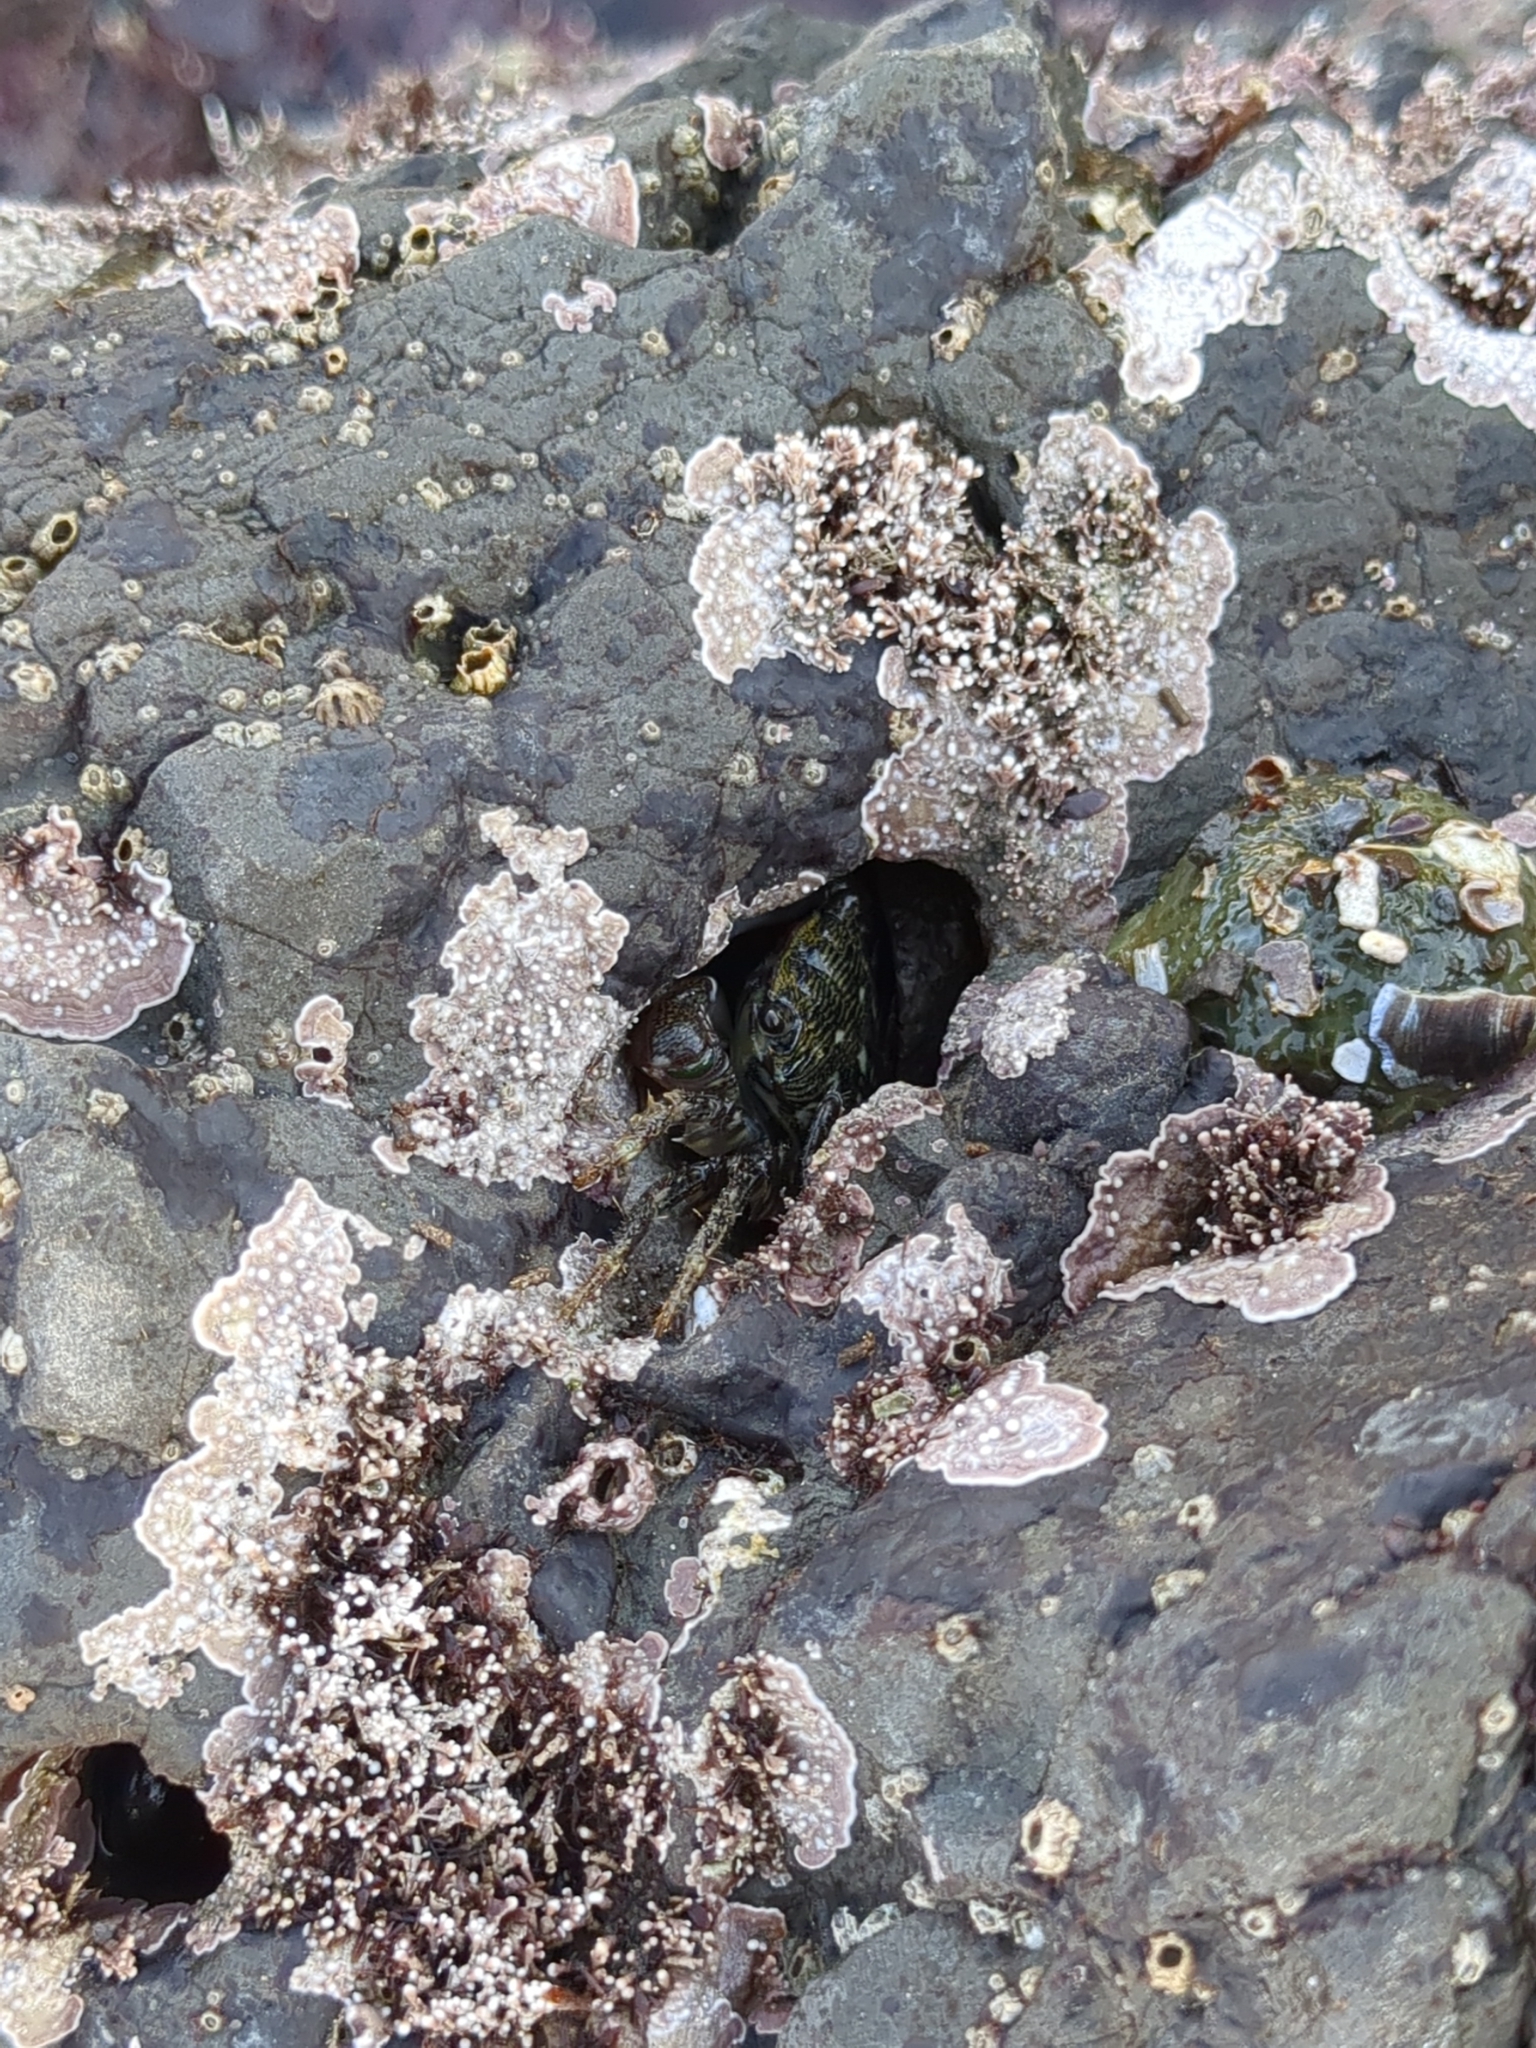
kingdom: Animalia
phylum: Arthropoda
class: Malacostraca
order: Decapoda
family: Grapsidae
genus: Pachygrapsus
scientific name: Pachygrapsus crassipes
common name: Striped shore crab
